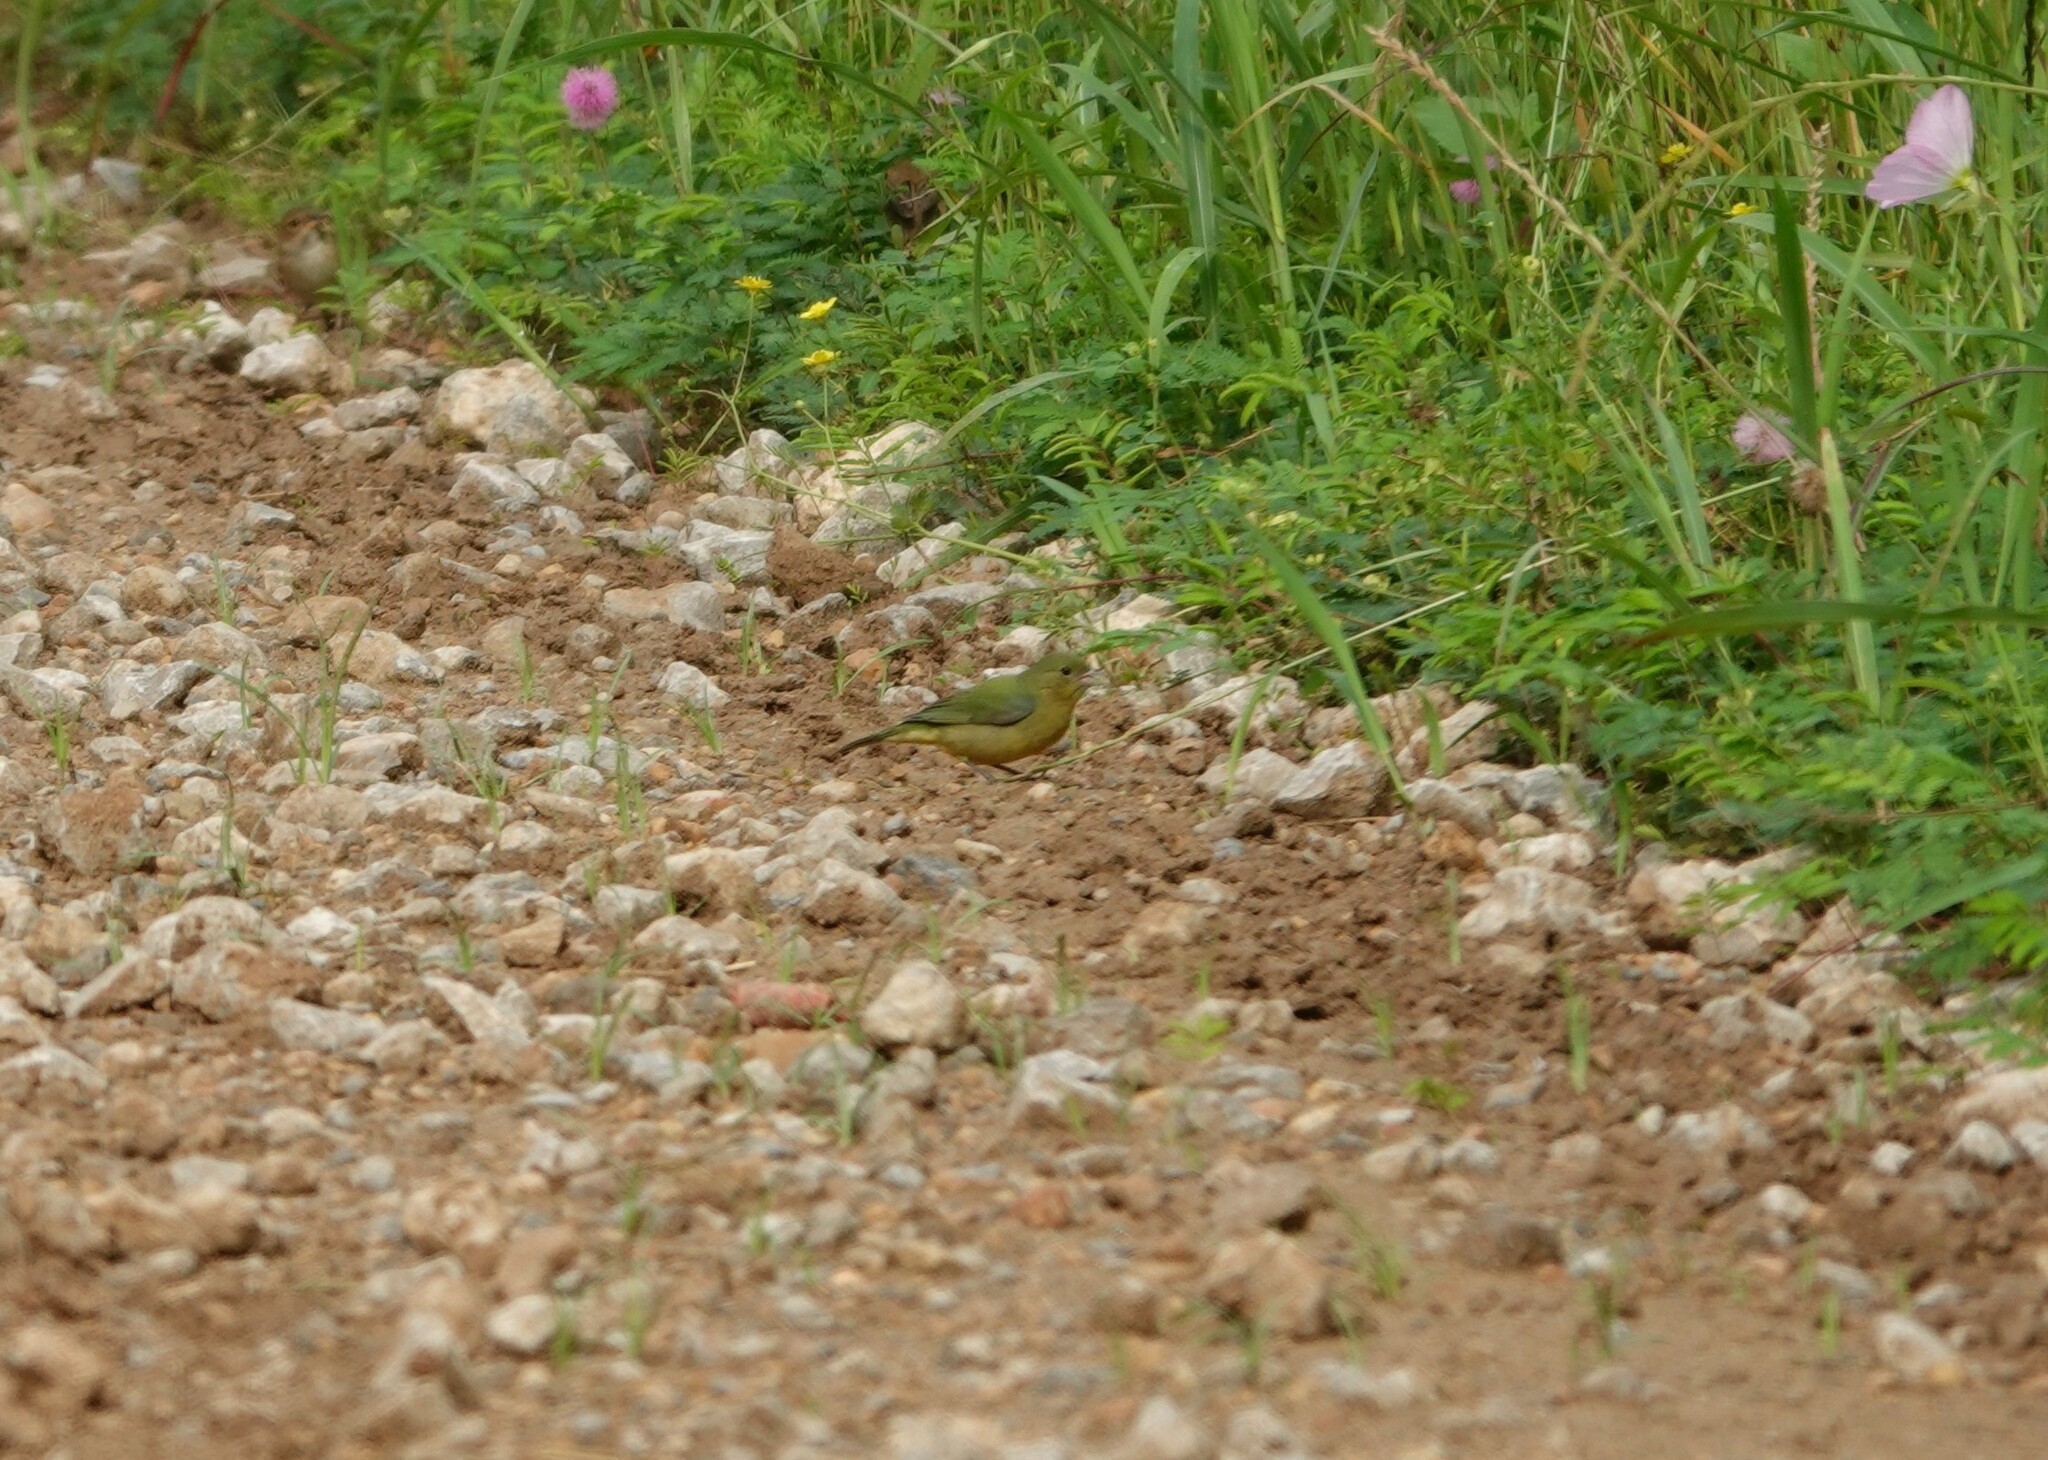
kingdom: Animalia
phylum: Chordata
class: Aves
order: Passeriformes
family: Cardinalidae
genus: Passerina
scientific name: Passerina ciris
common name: Painted bunting
